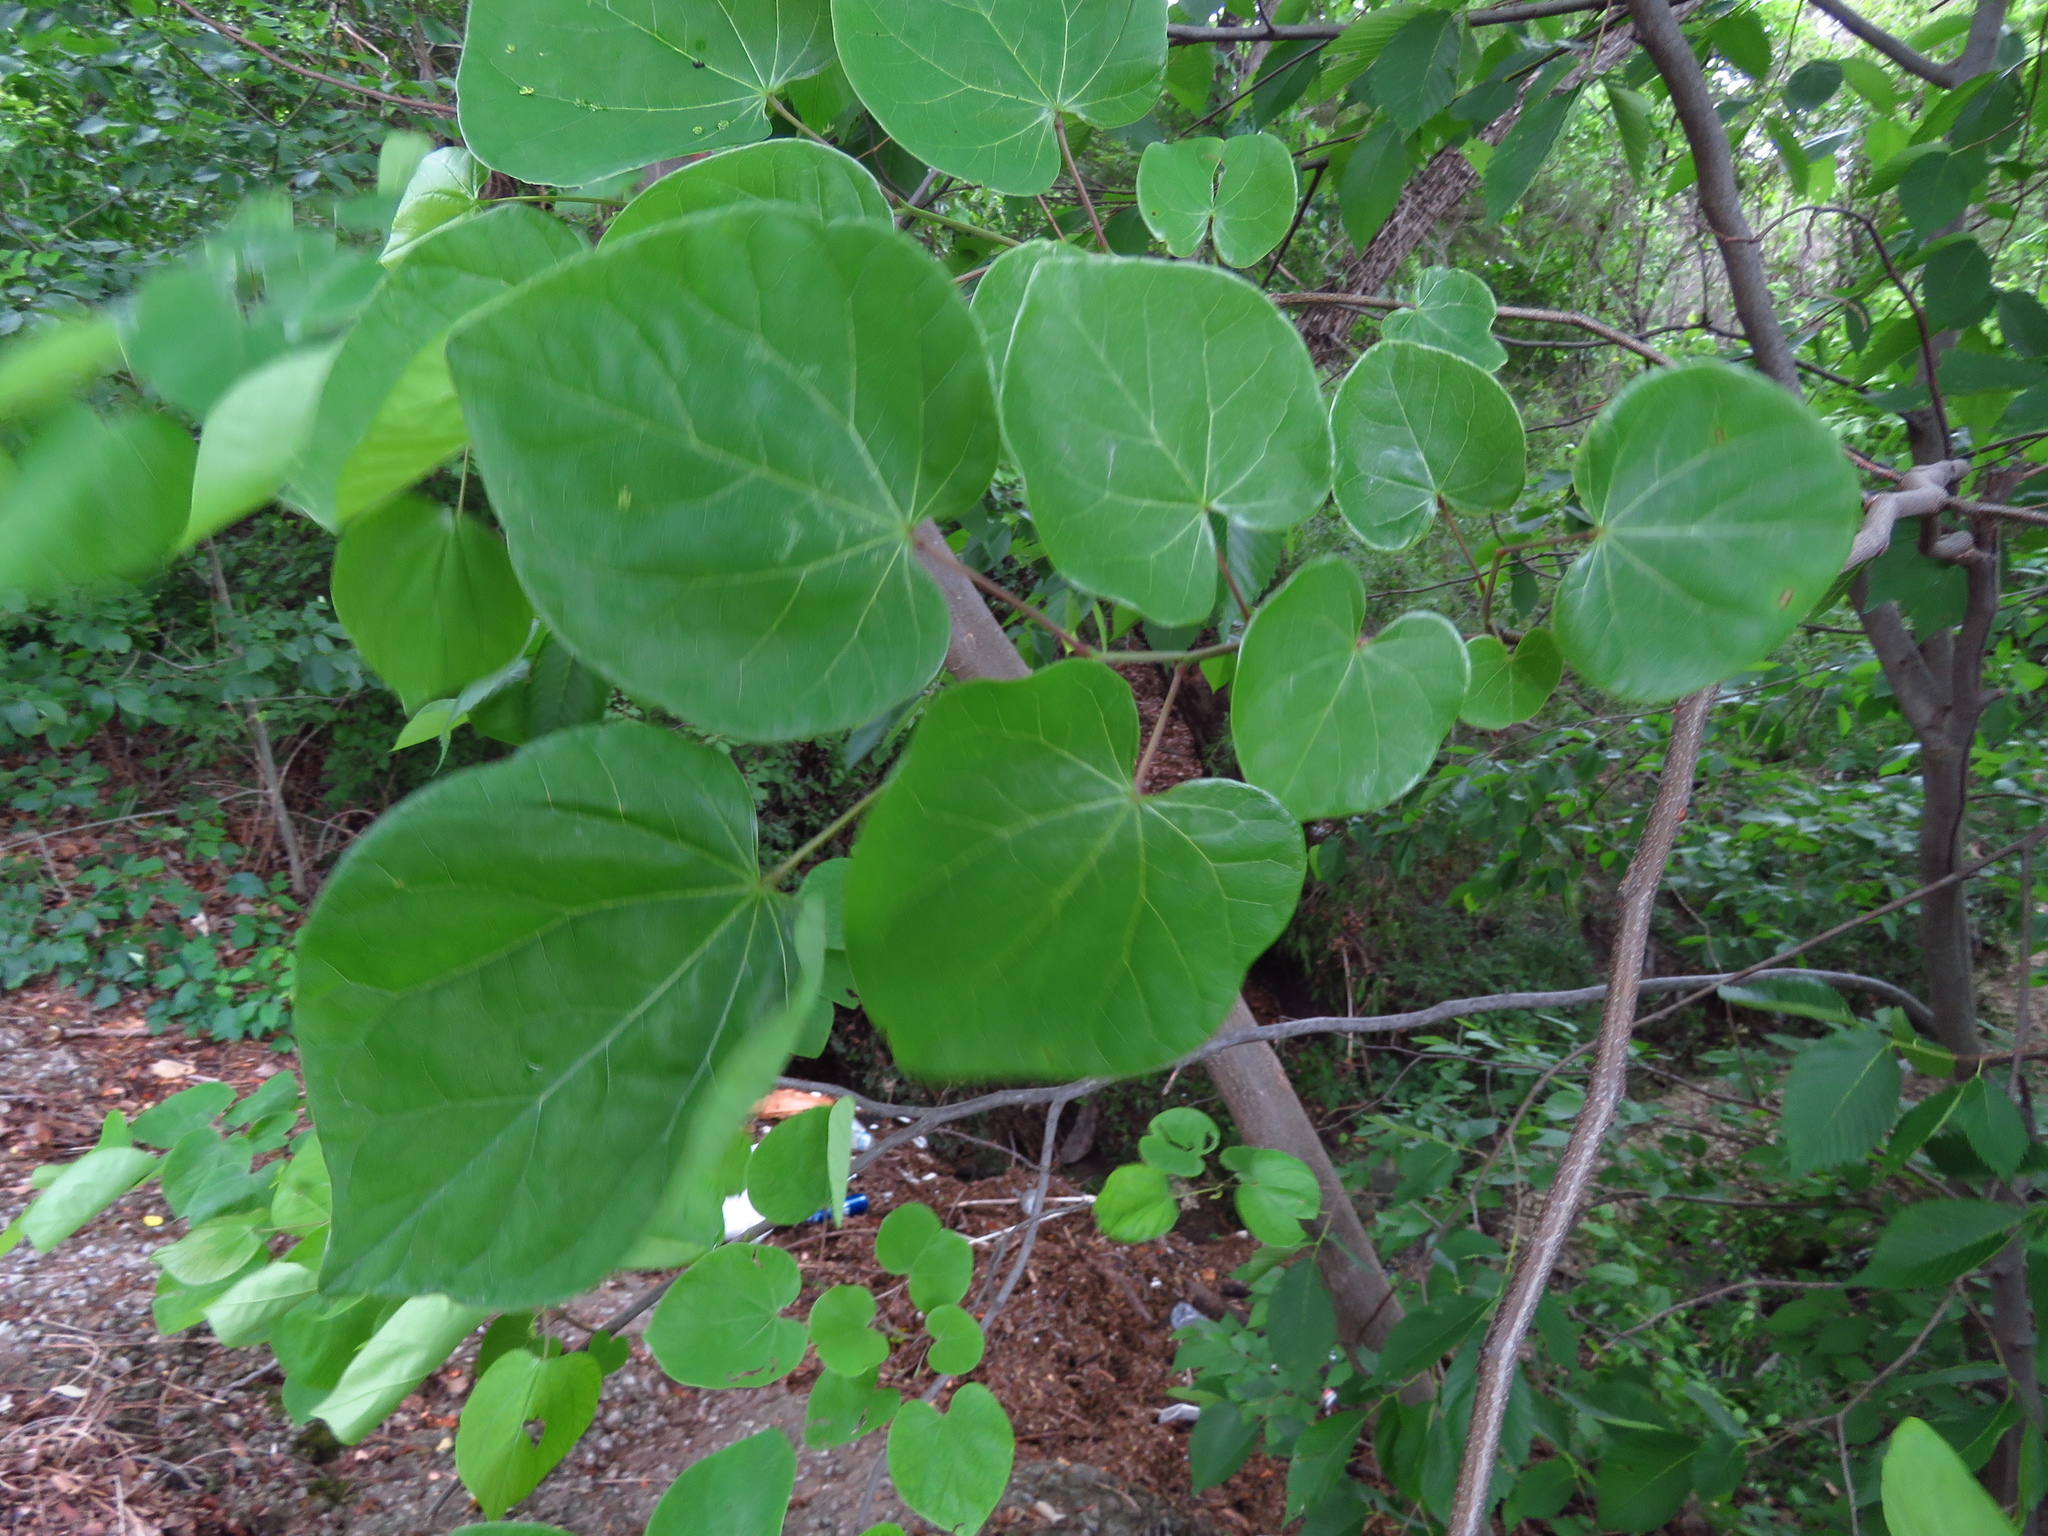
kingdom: Plantae
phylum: Tracheophyta
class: Magnoliopsida
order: Fabales
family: Fabaceae
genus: Cercis
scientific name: Cercis canadensis
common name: Eastern redbud
